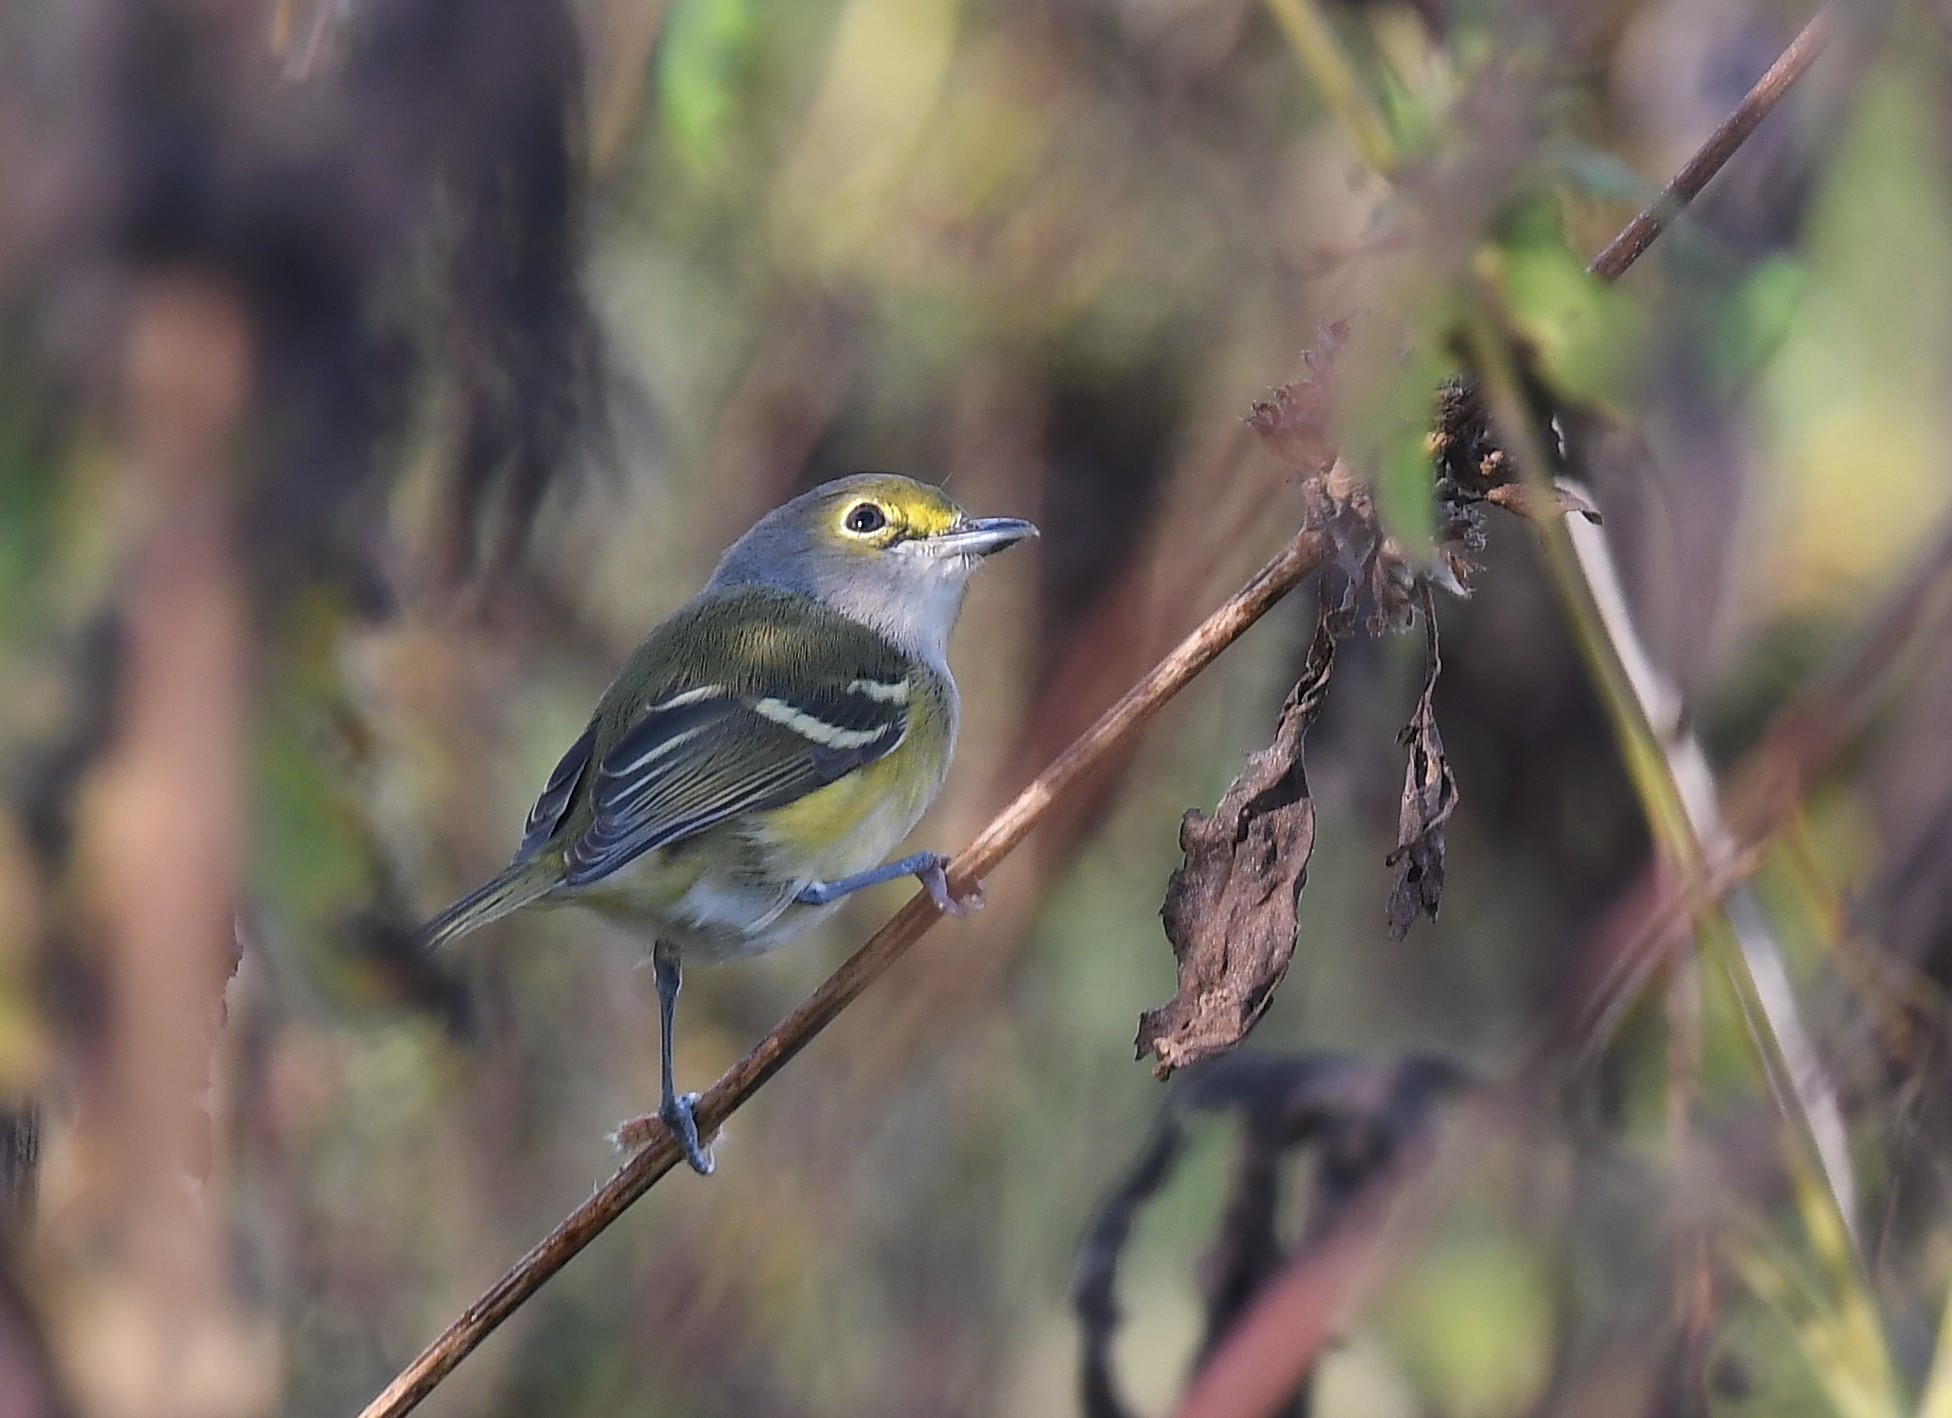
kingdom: Animalia
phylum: Chordata
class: Aves
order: Passeriformes
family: Vireonidae
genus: Vireo
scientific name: Vireo griseus
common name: White-eyed vireo
